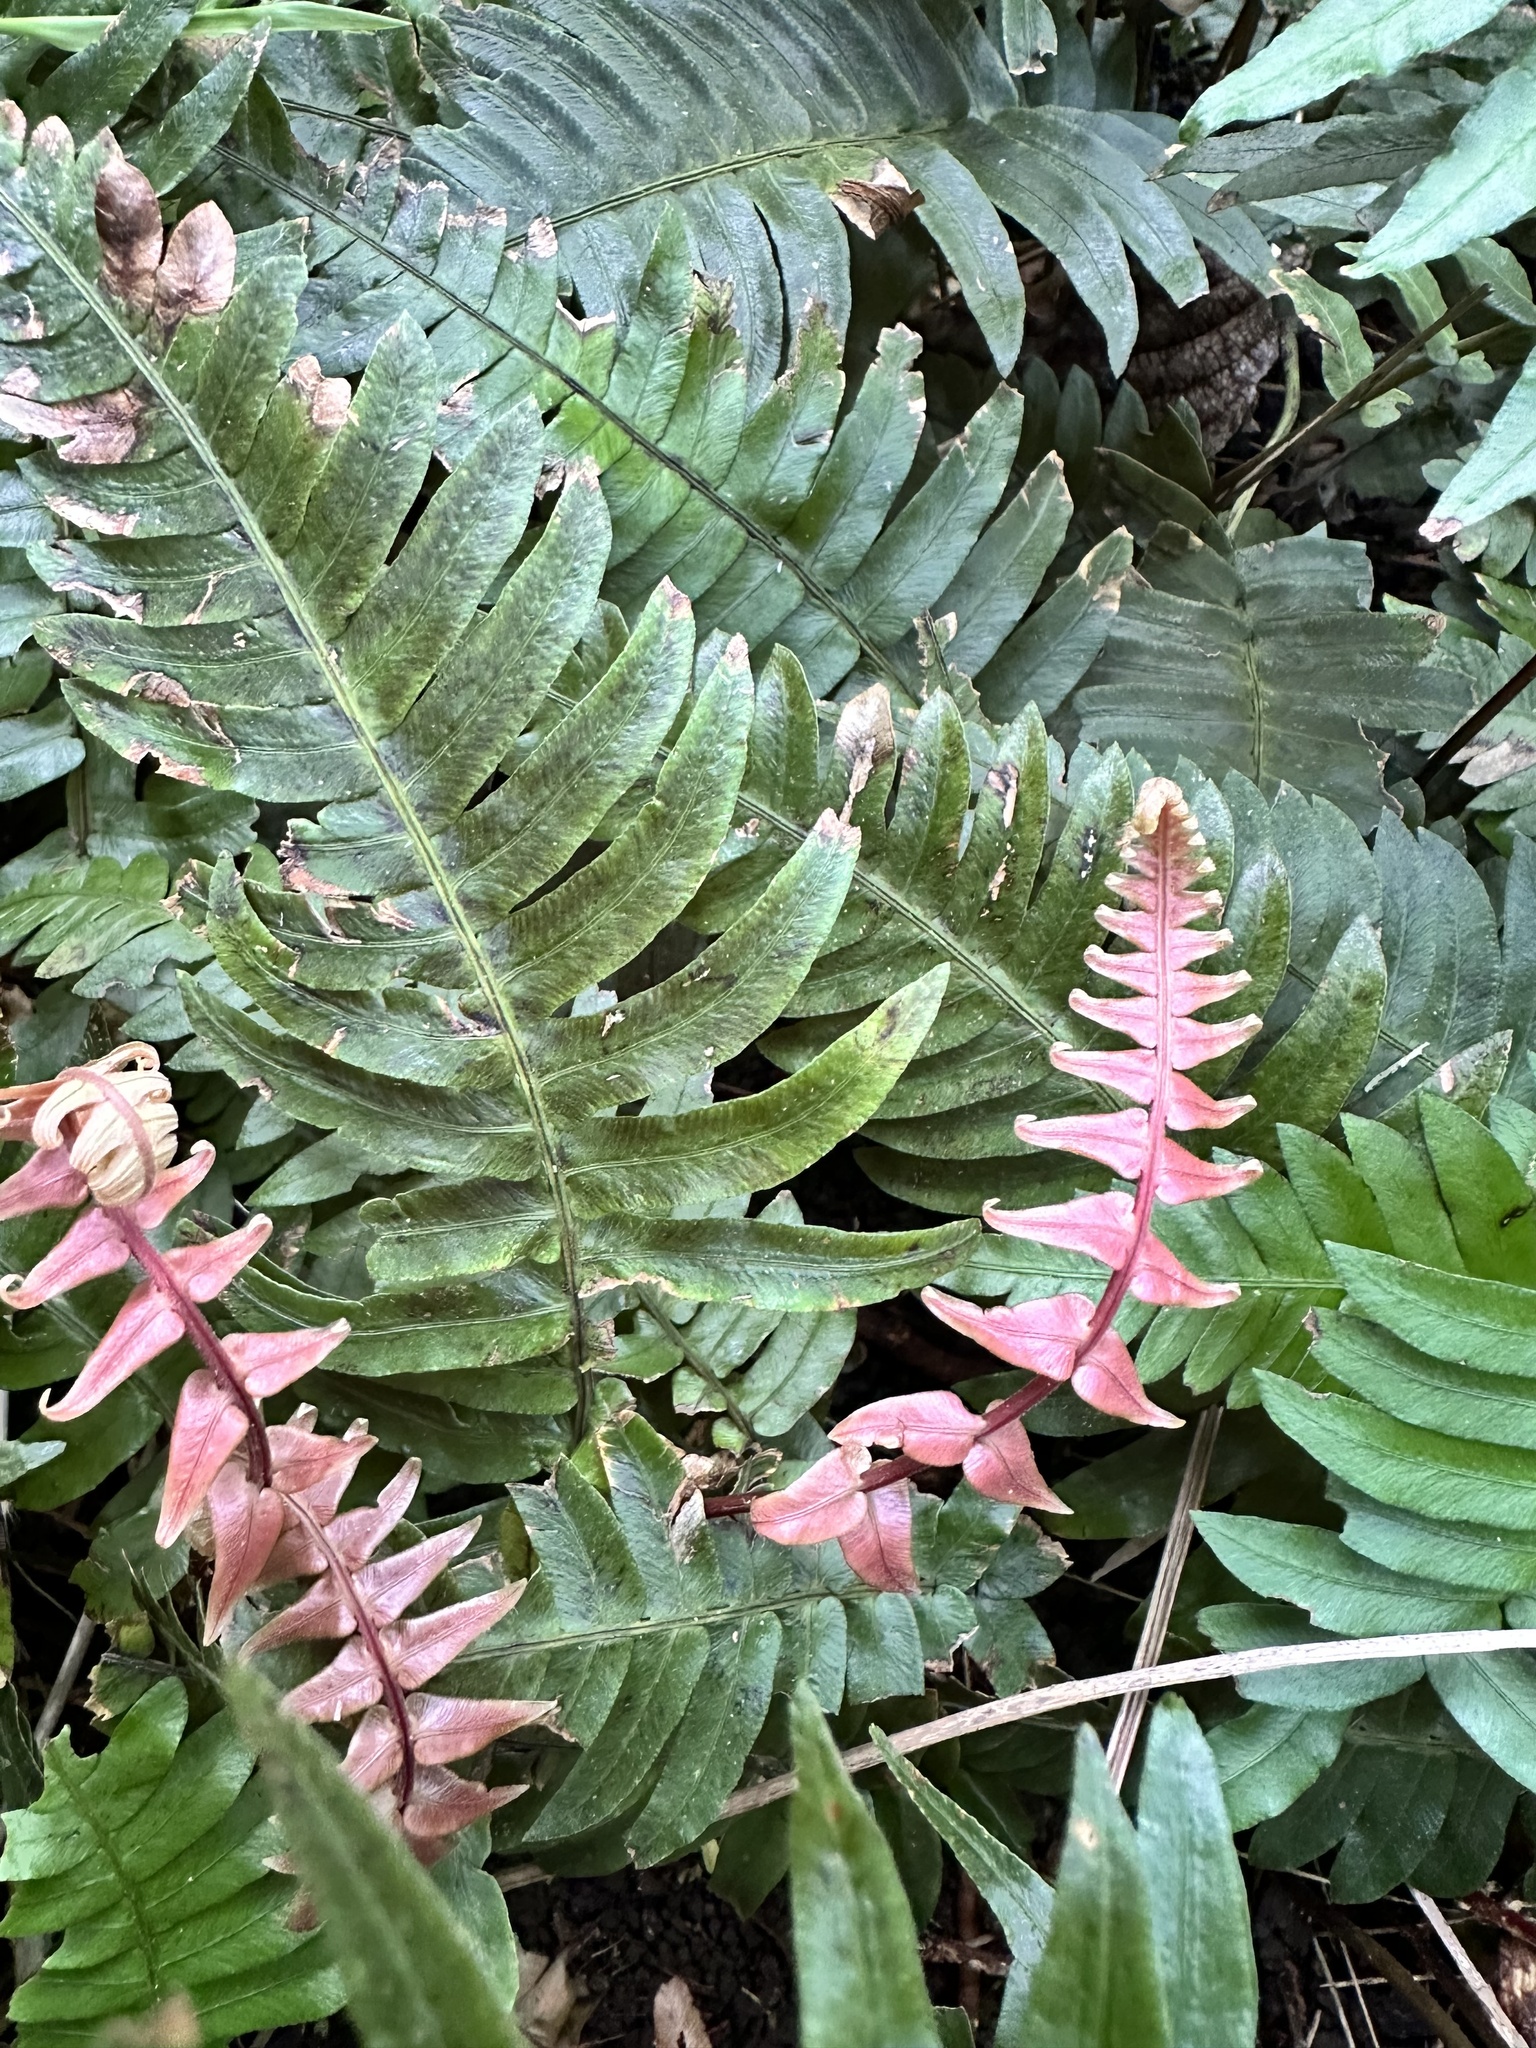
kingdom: Plantae
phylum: Tracheophyta
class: Polypodiopsida
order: Polypodiales
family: Blechnaceae
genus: Blechnum
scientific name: Blechnum appendiculatum
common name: Palm fern
